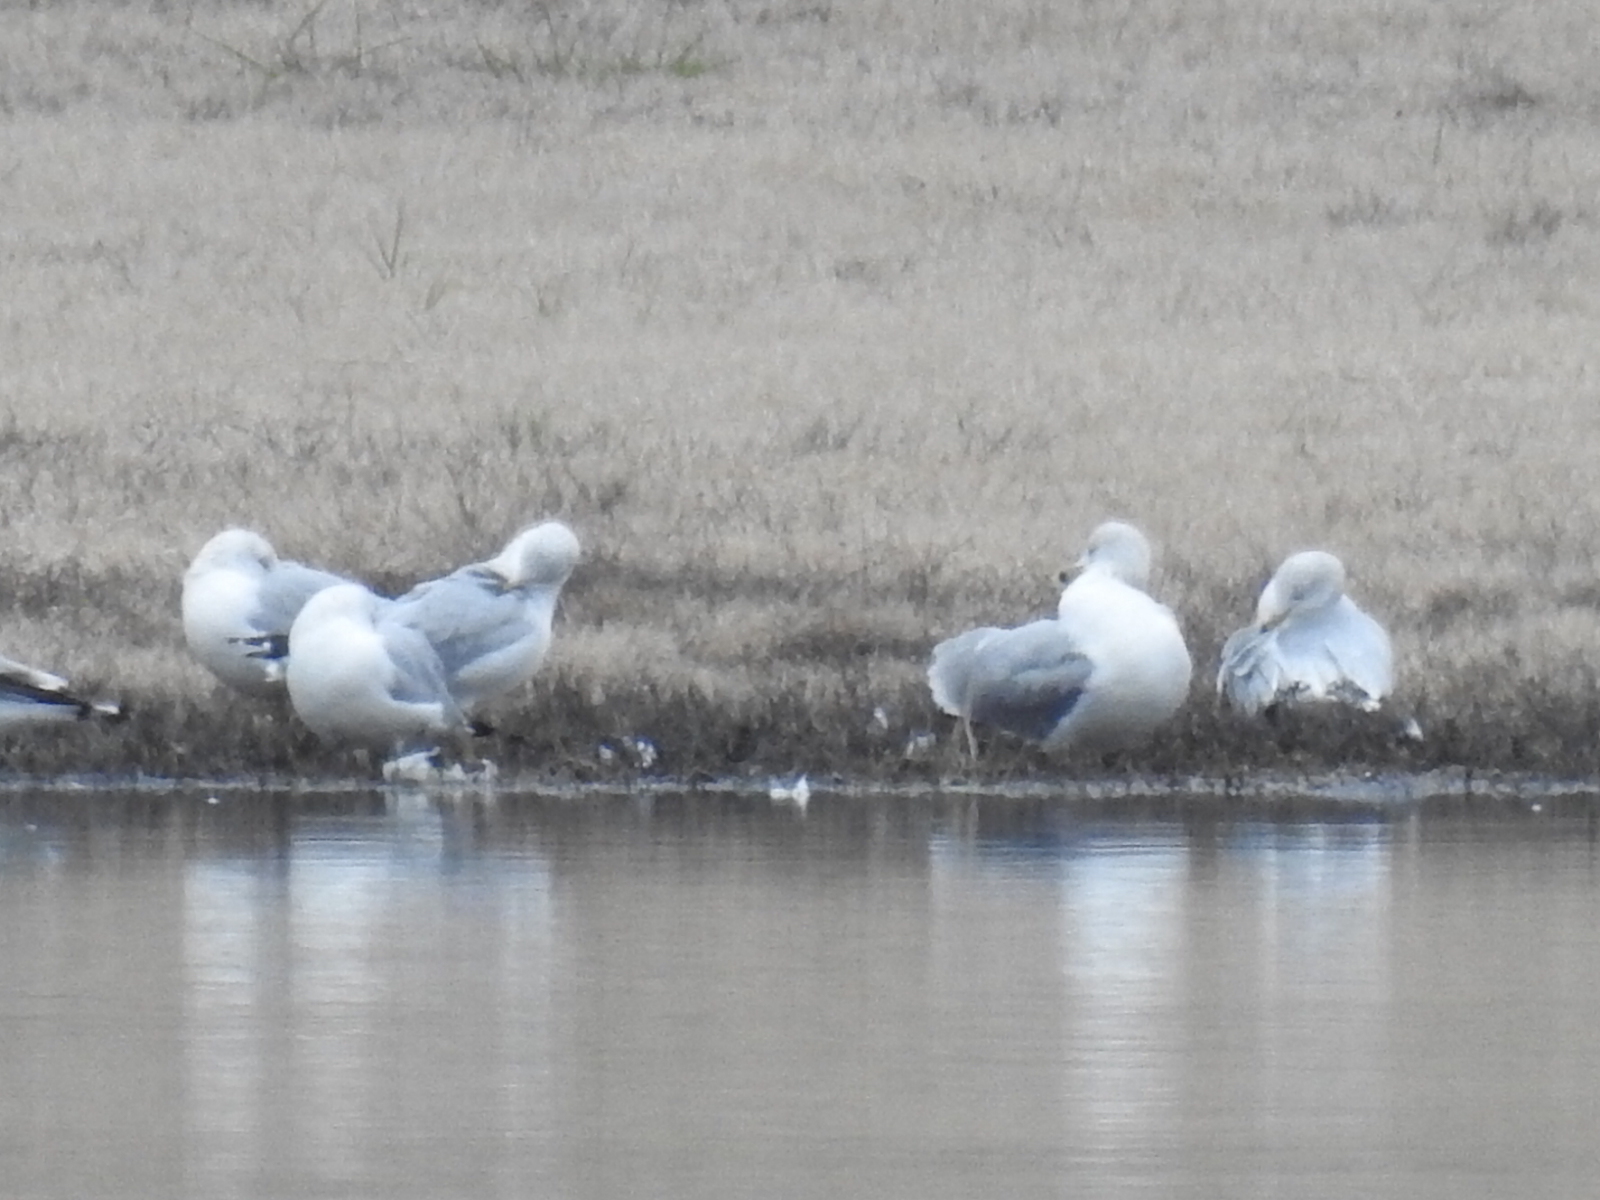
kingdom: Animalia
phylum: Chordata
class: Aves
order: Charadriiformes
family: Laridae
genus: Larus
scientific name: Larus delawarensis
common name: Ring-billed gull
